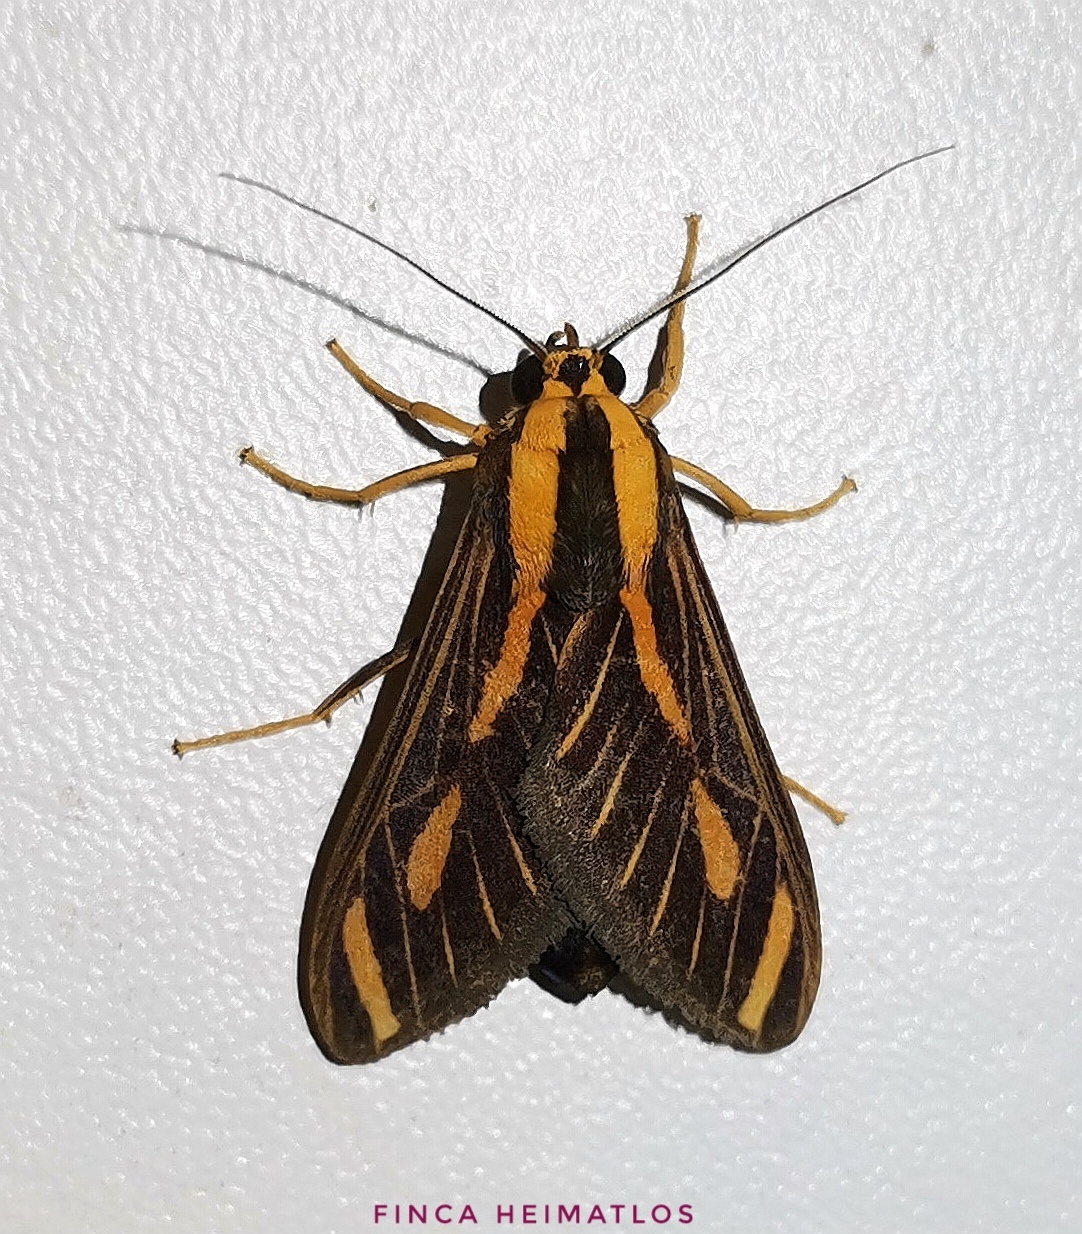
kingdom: Animalia
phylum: Arthropoda
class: Insecta
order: Lepidoptera
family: Erebidae
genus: Ormetica
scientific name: Ormetica sypilus
